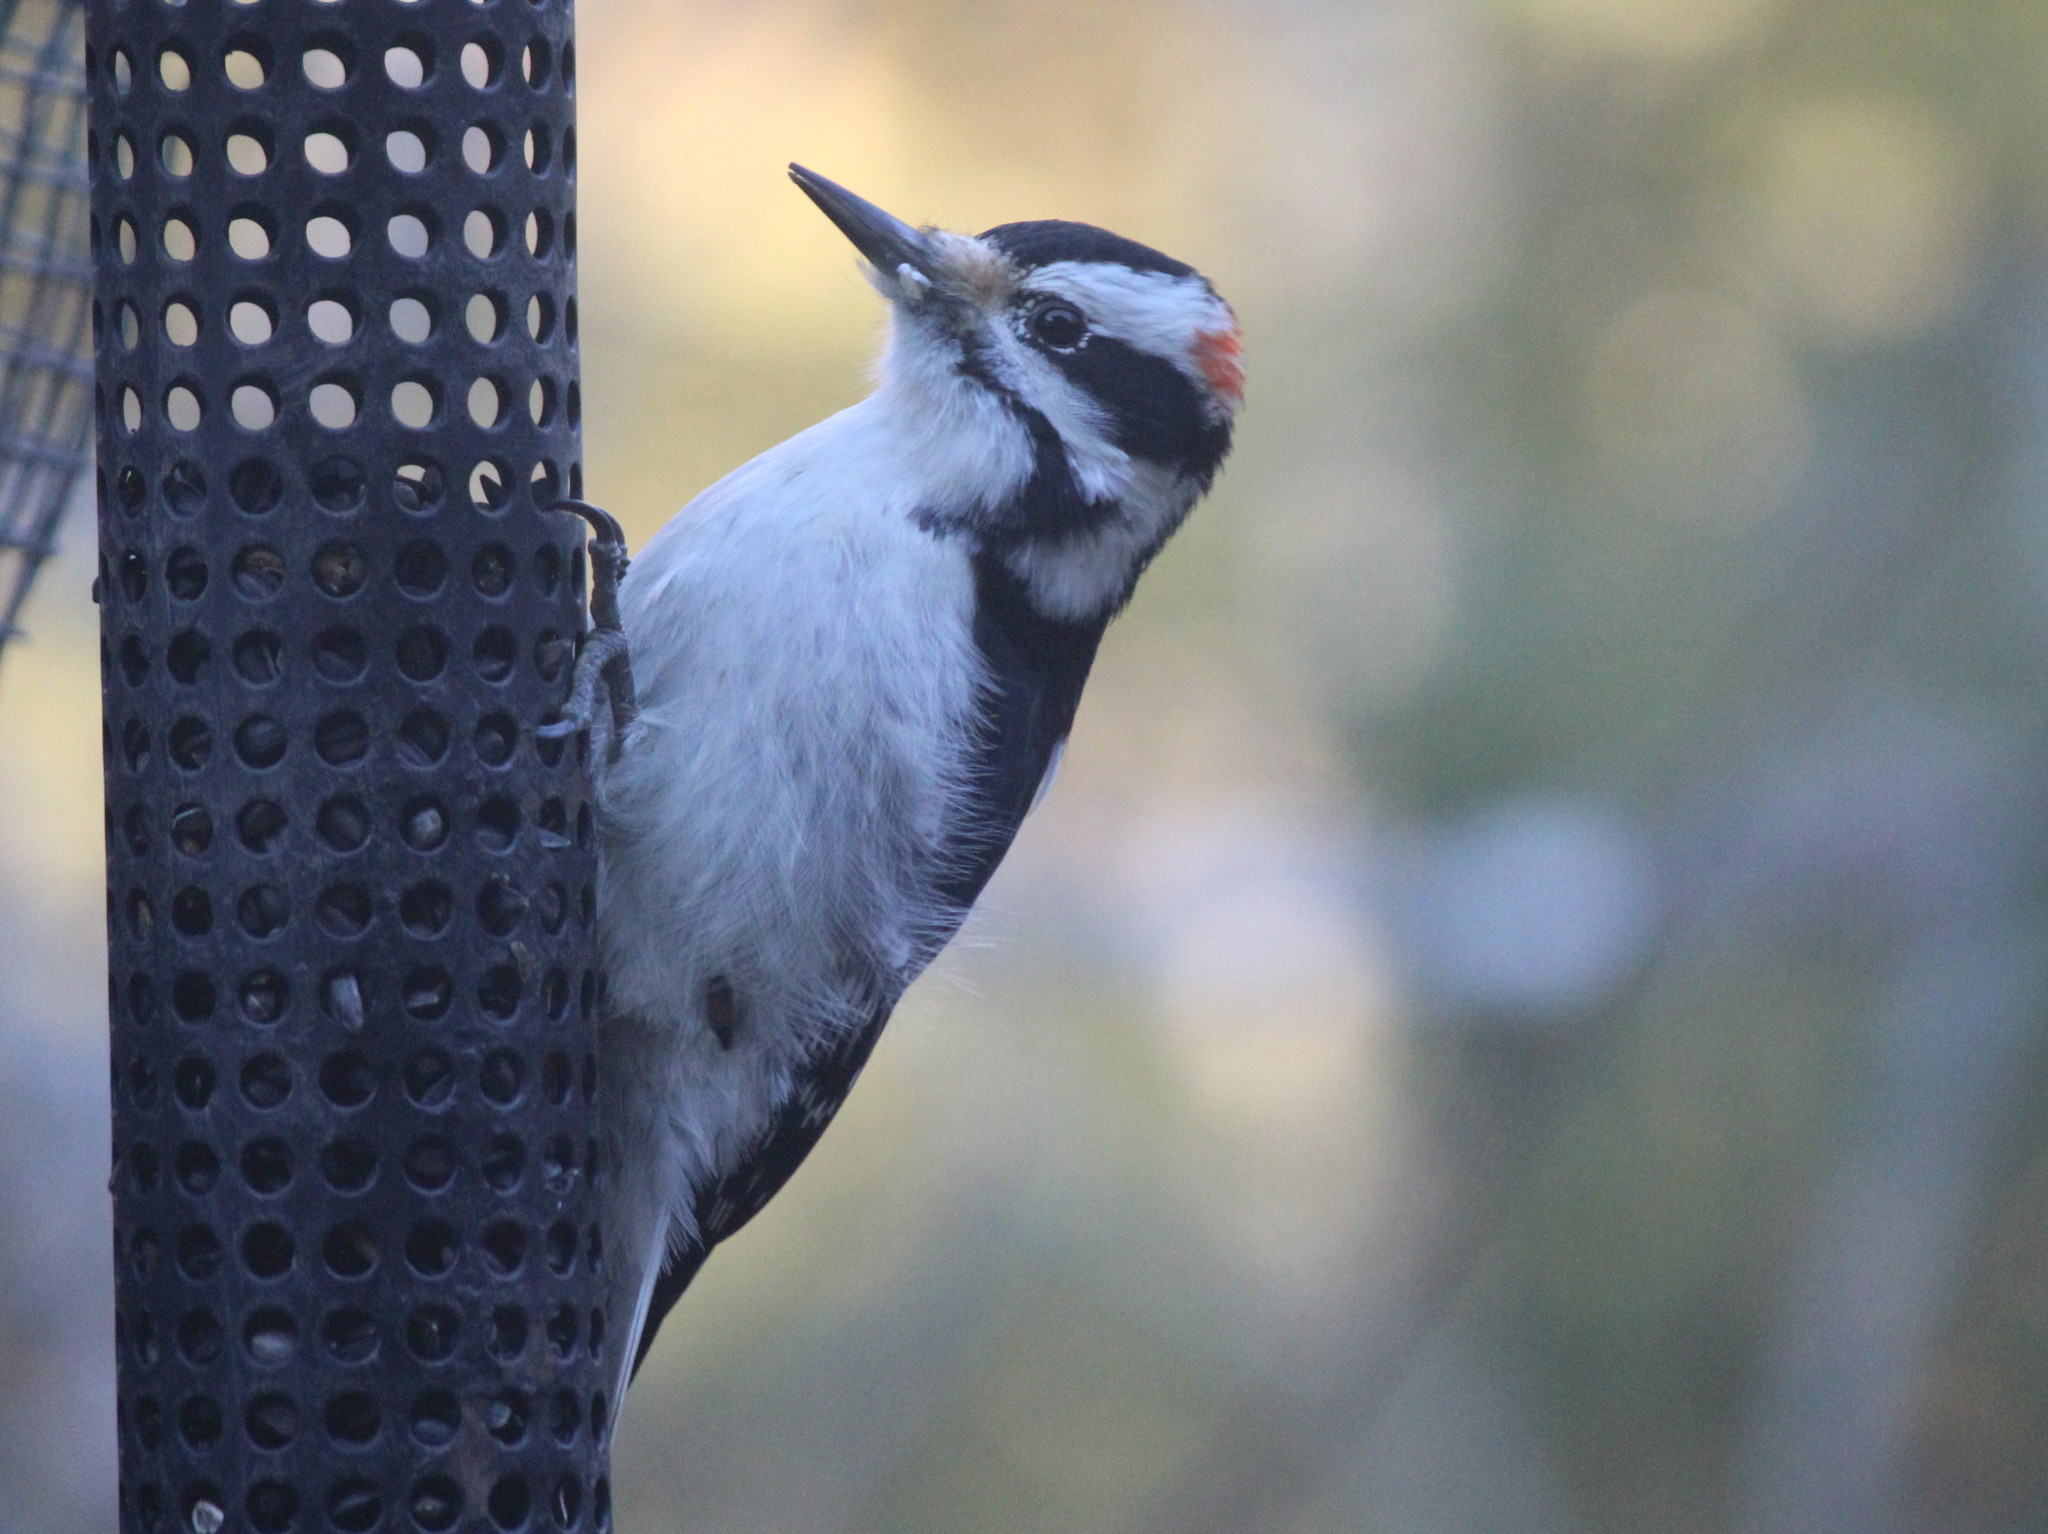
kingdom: Animalia
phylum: Chordata
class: Aves
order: Piciformes
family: Picidae
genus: Leuconotopicus
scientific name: Leuconotopicus villosus
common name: Hairy woodpecker
